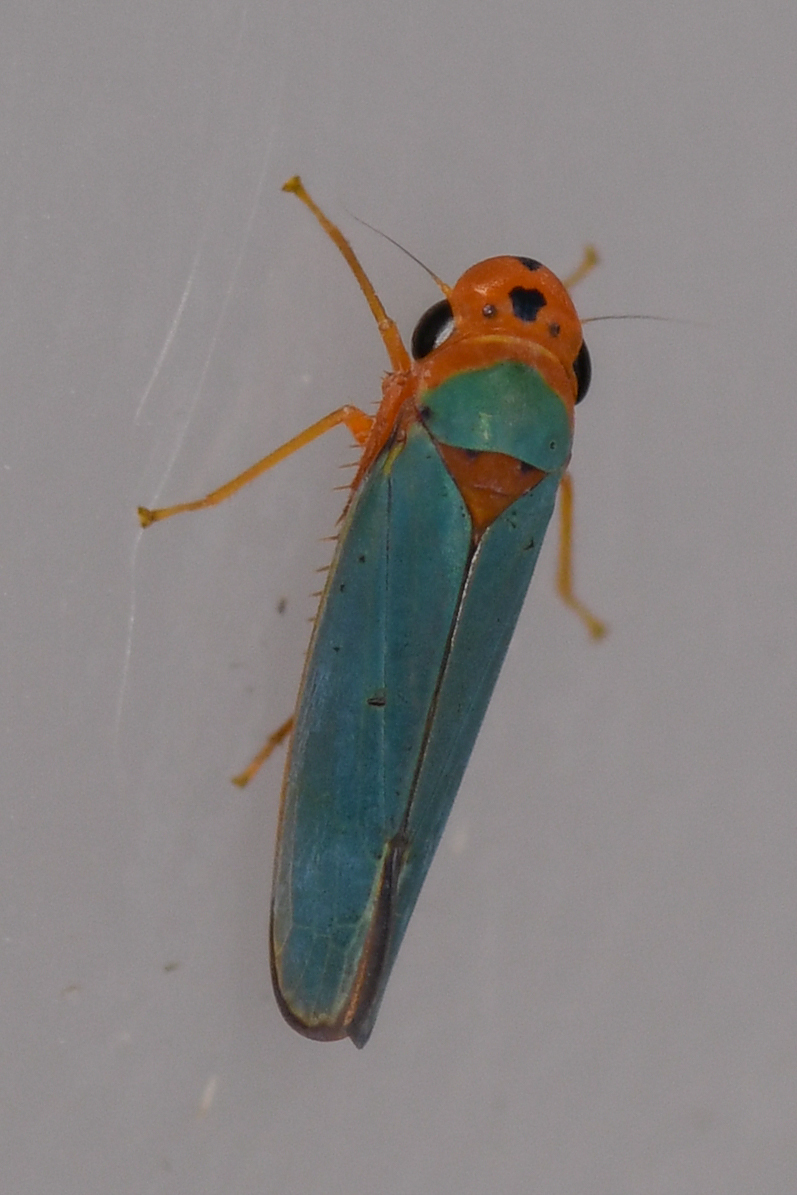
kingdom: Animalia
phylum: Arthropoda
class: Insecta
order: Hemiptera
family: Cicadellidae
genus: Macunolla
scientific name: Macunolla ventralis
